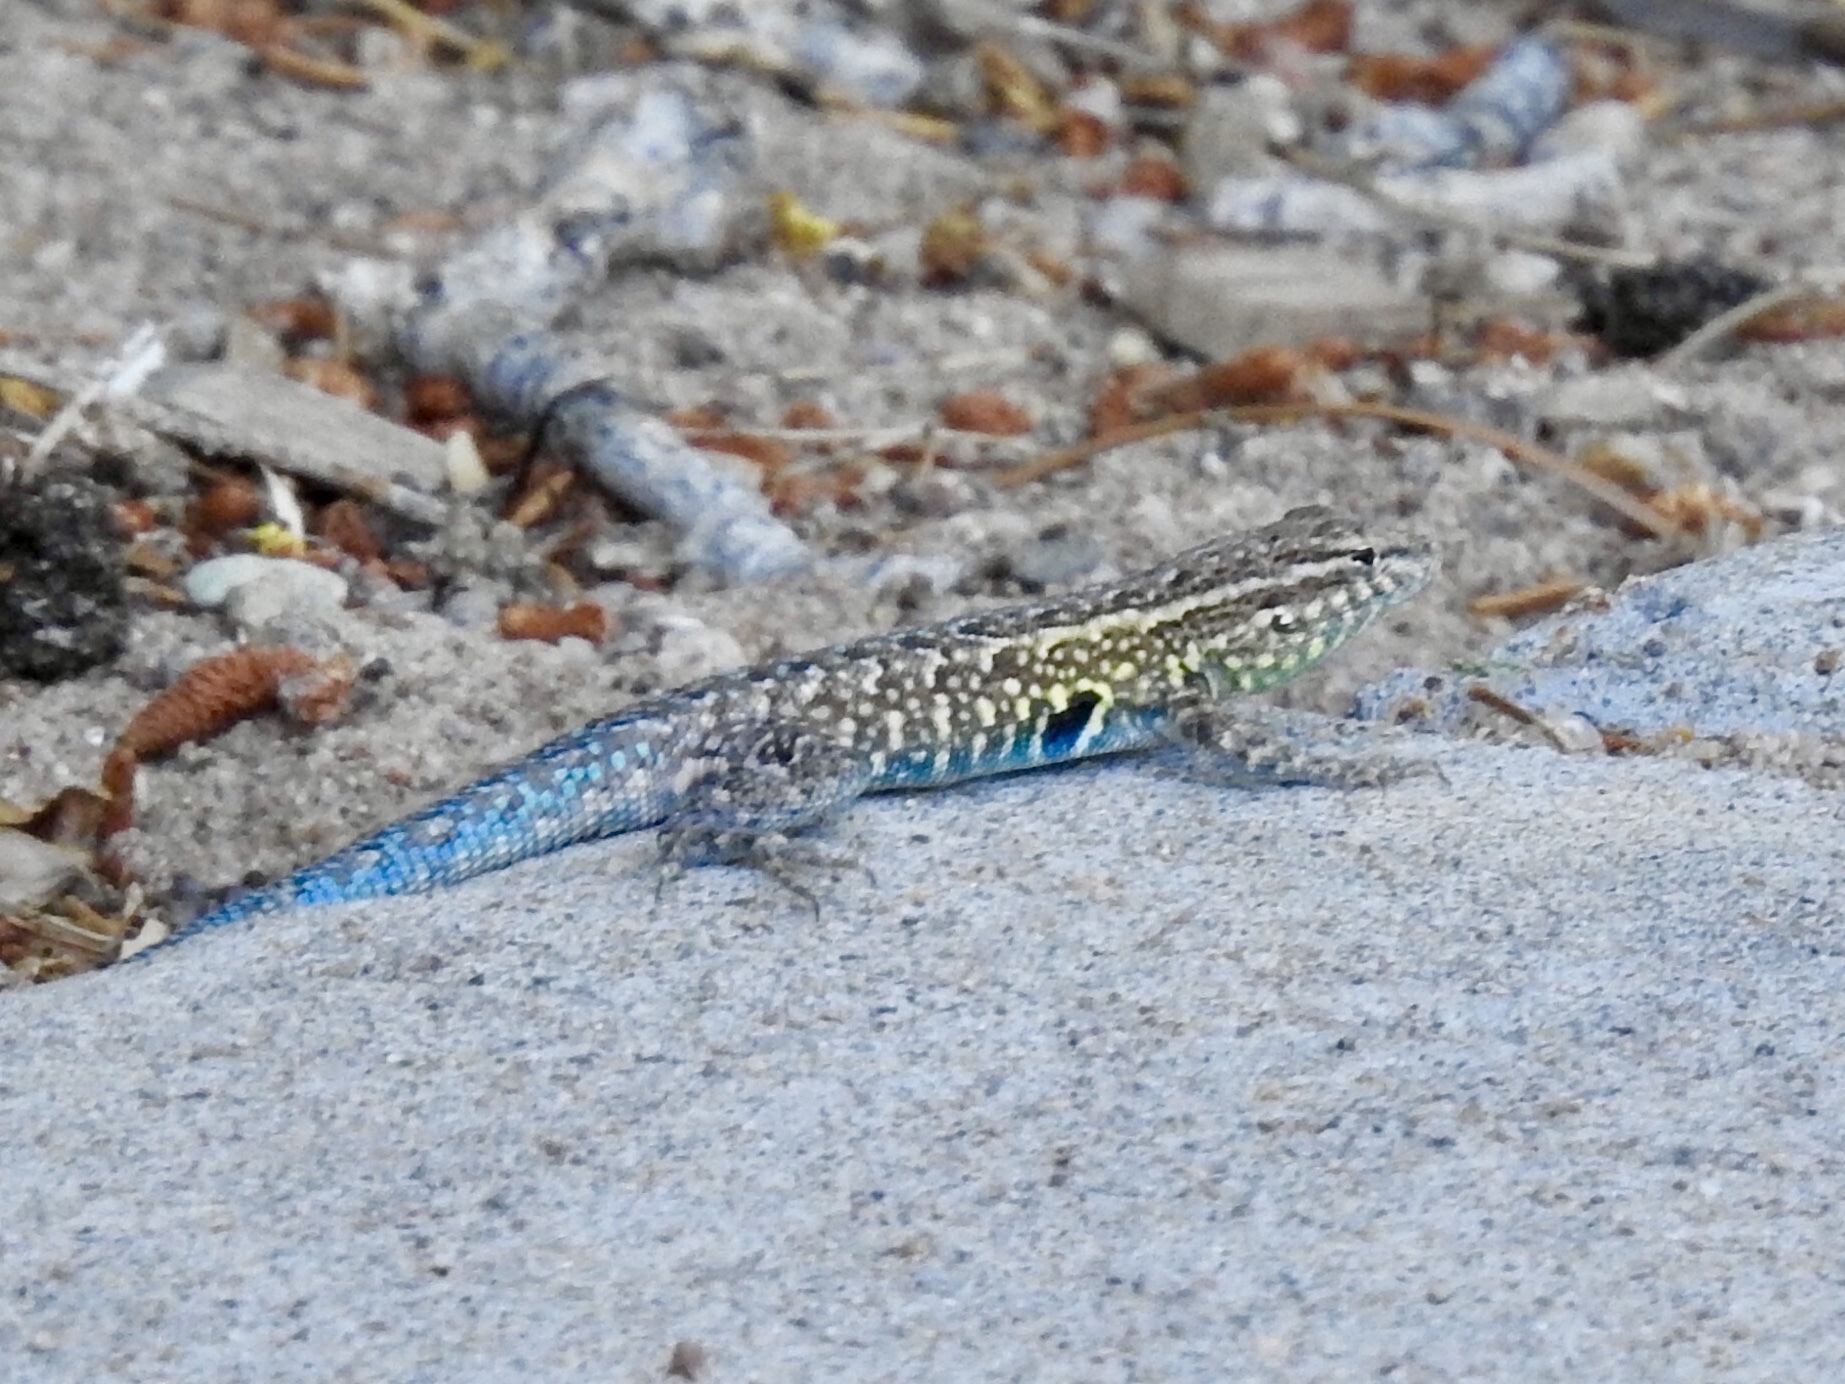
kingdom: Animalia
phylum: Chordata
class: Squamata
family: Phrynosomatidae
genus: Uta
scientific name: Uta stansburiana
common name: Side-blotched lizard
